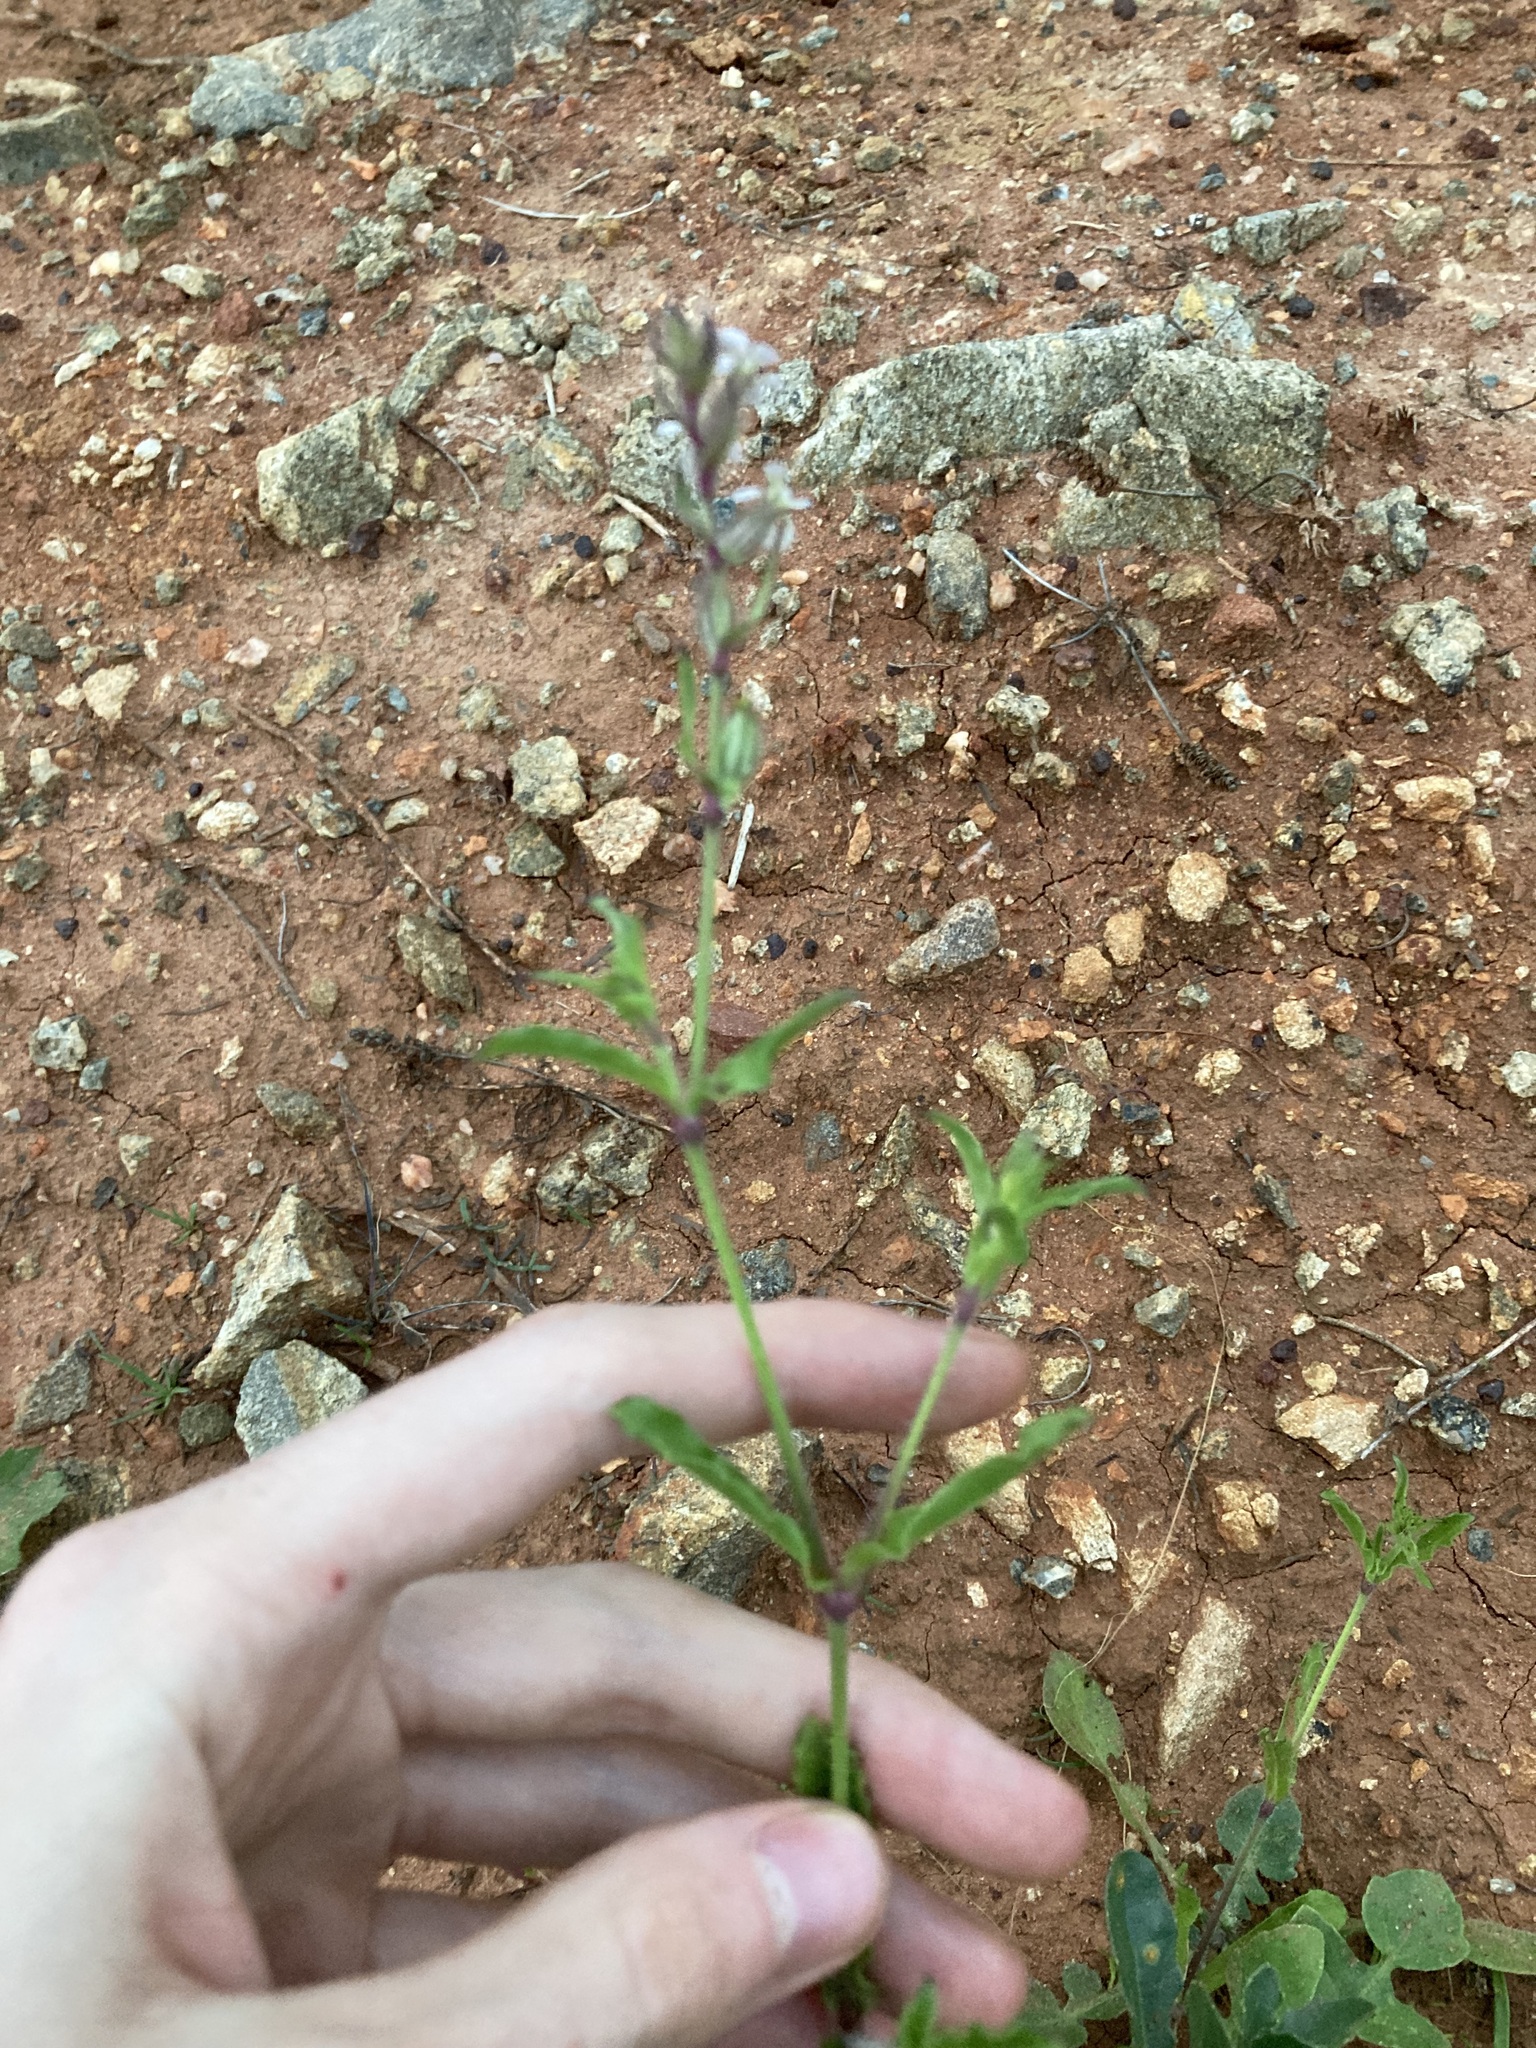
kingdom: Plantae
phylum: Tracheophyta
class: Magnoliopsida
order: Caryophyllales
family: Caryophyllaceae
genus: Silene
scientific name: Silene gallica
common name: Small-flowered catchfly
